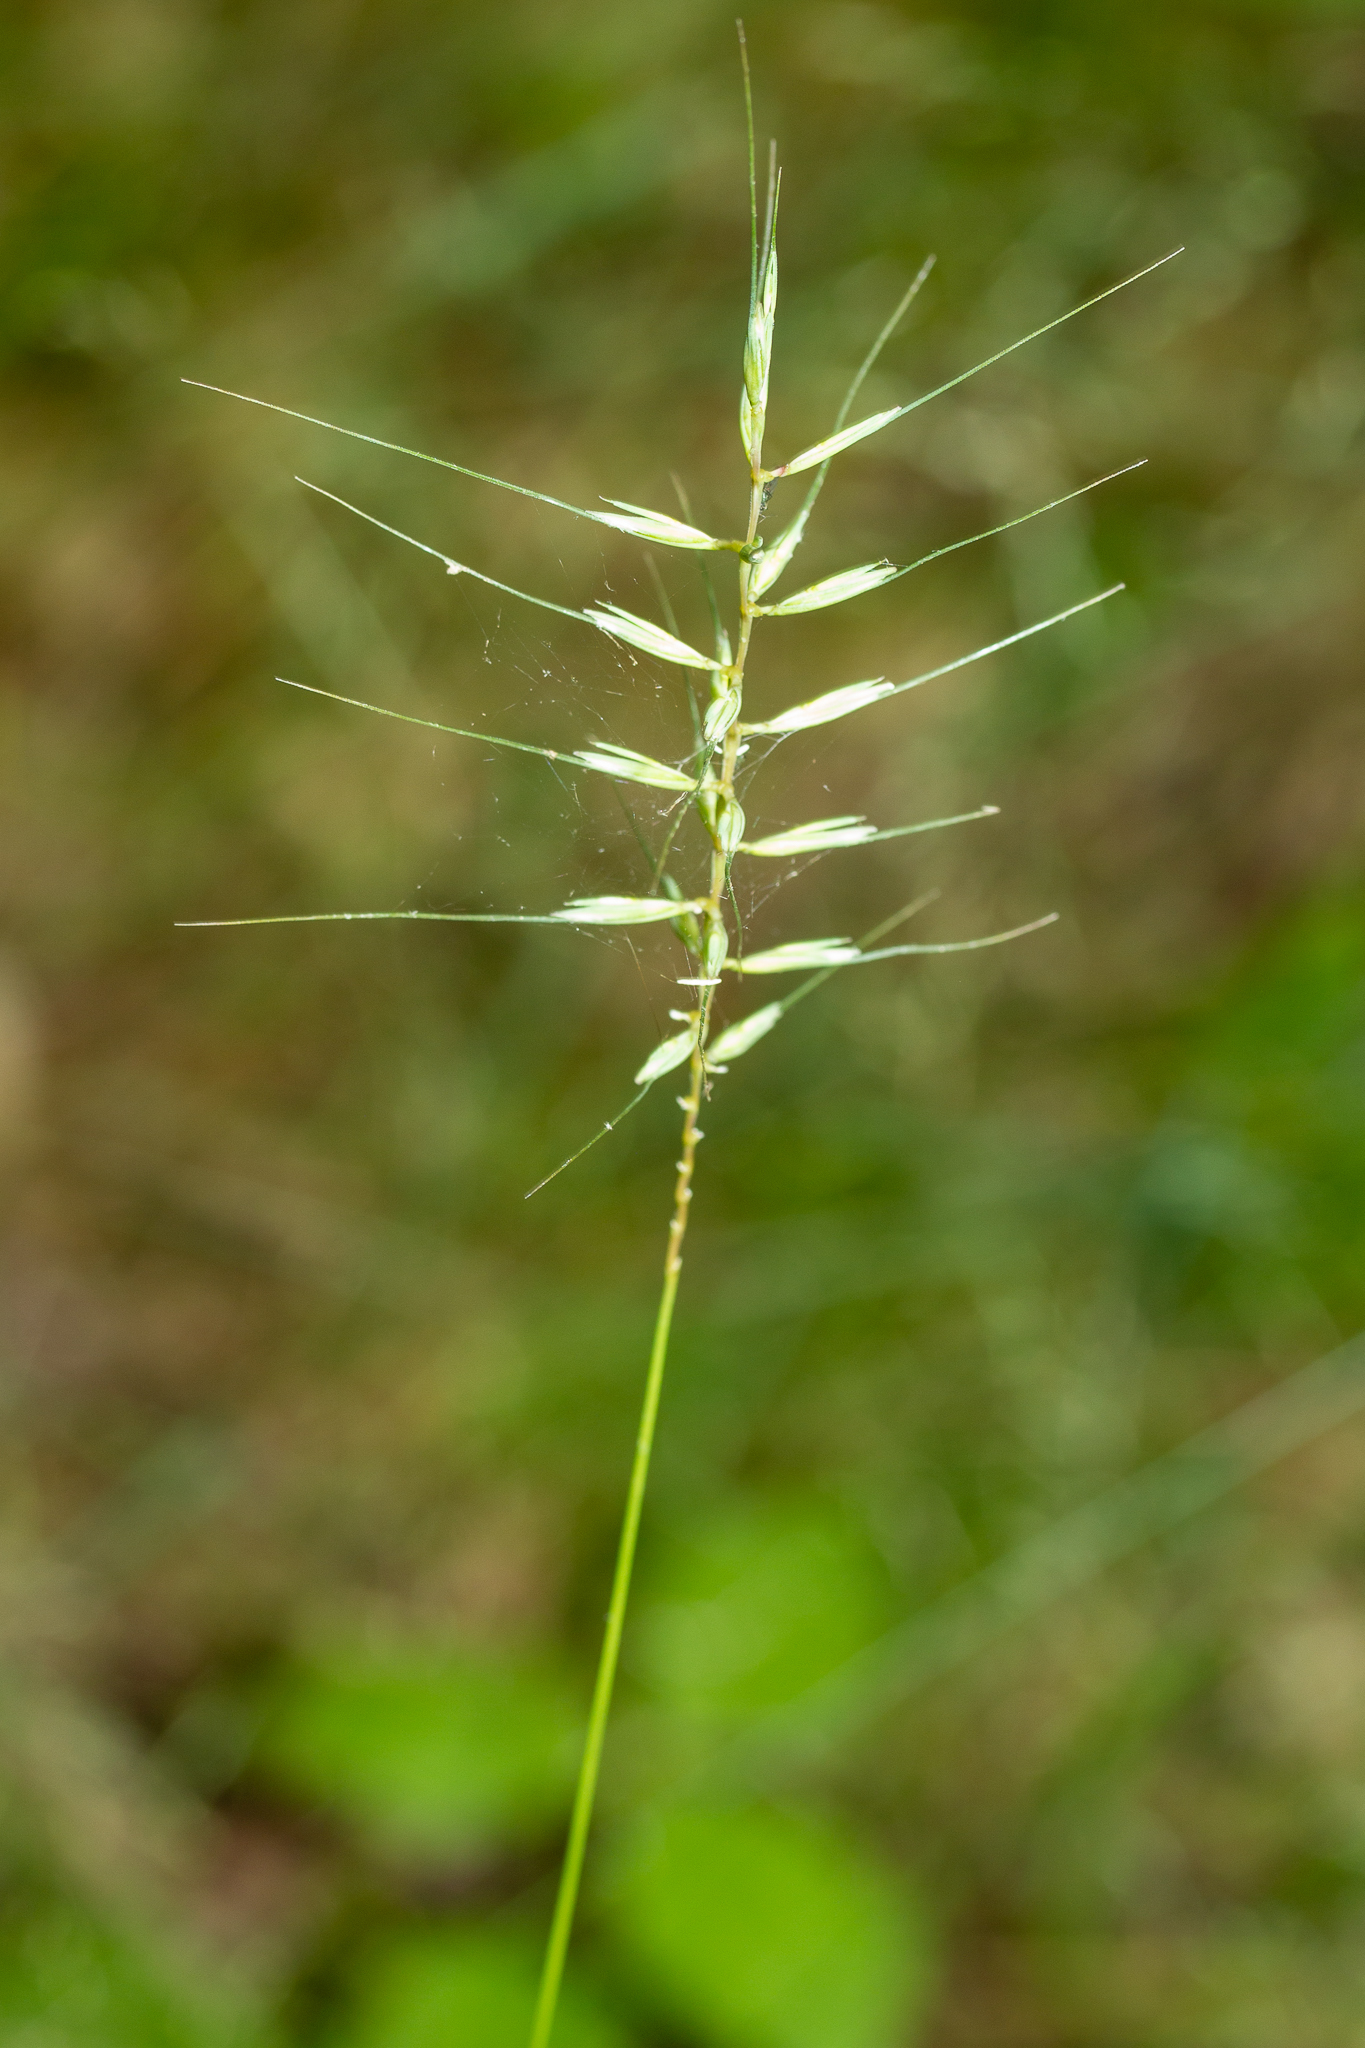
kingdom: Plantae
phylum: Tracheophyta
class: Liliopsida
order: Poales
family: Poaceae
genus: Elymus
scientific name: Elymus hystrix
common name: Bottlebrush grass
